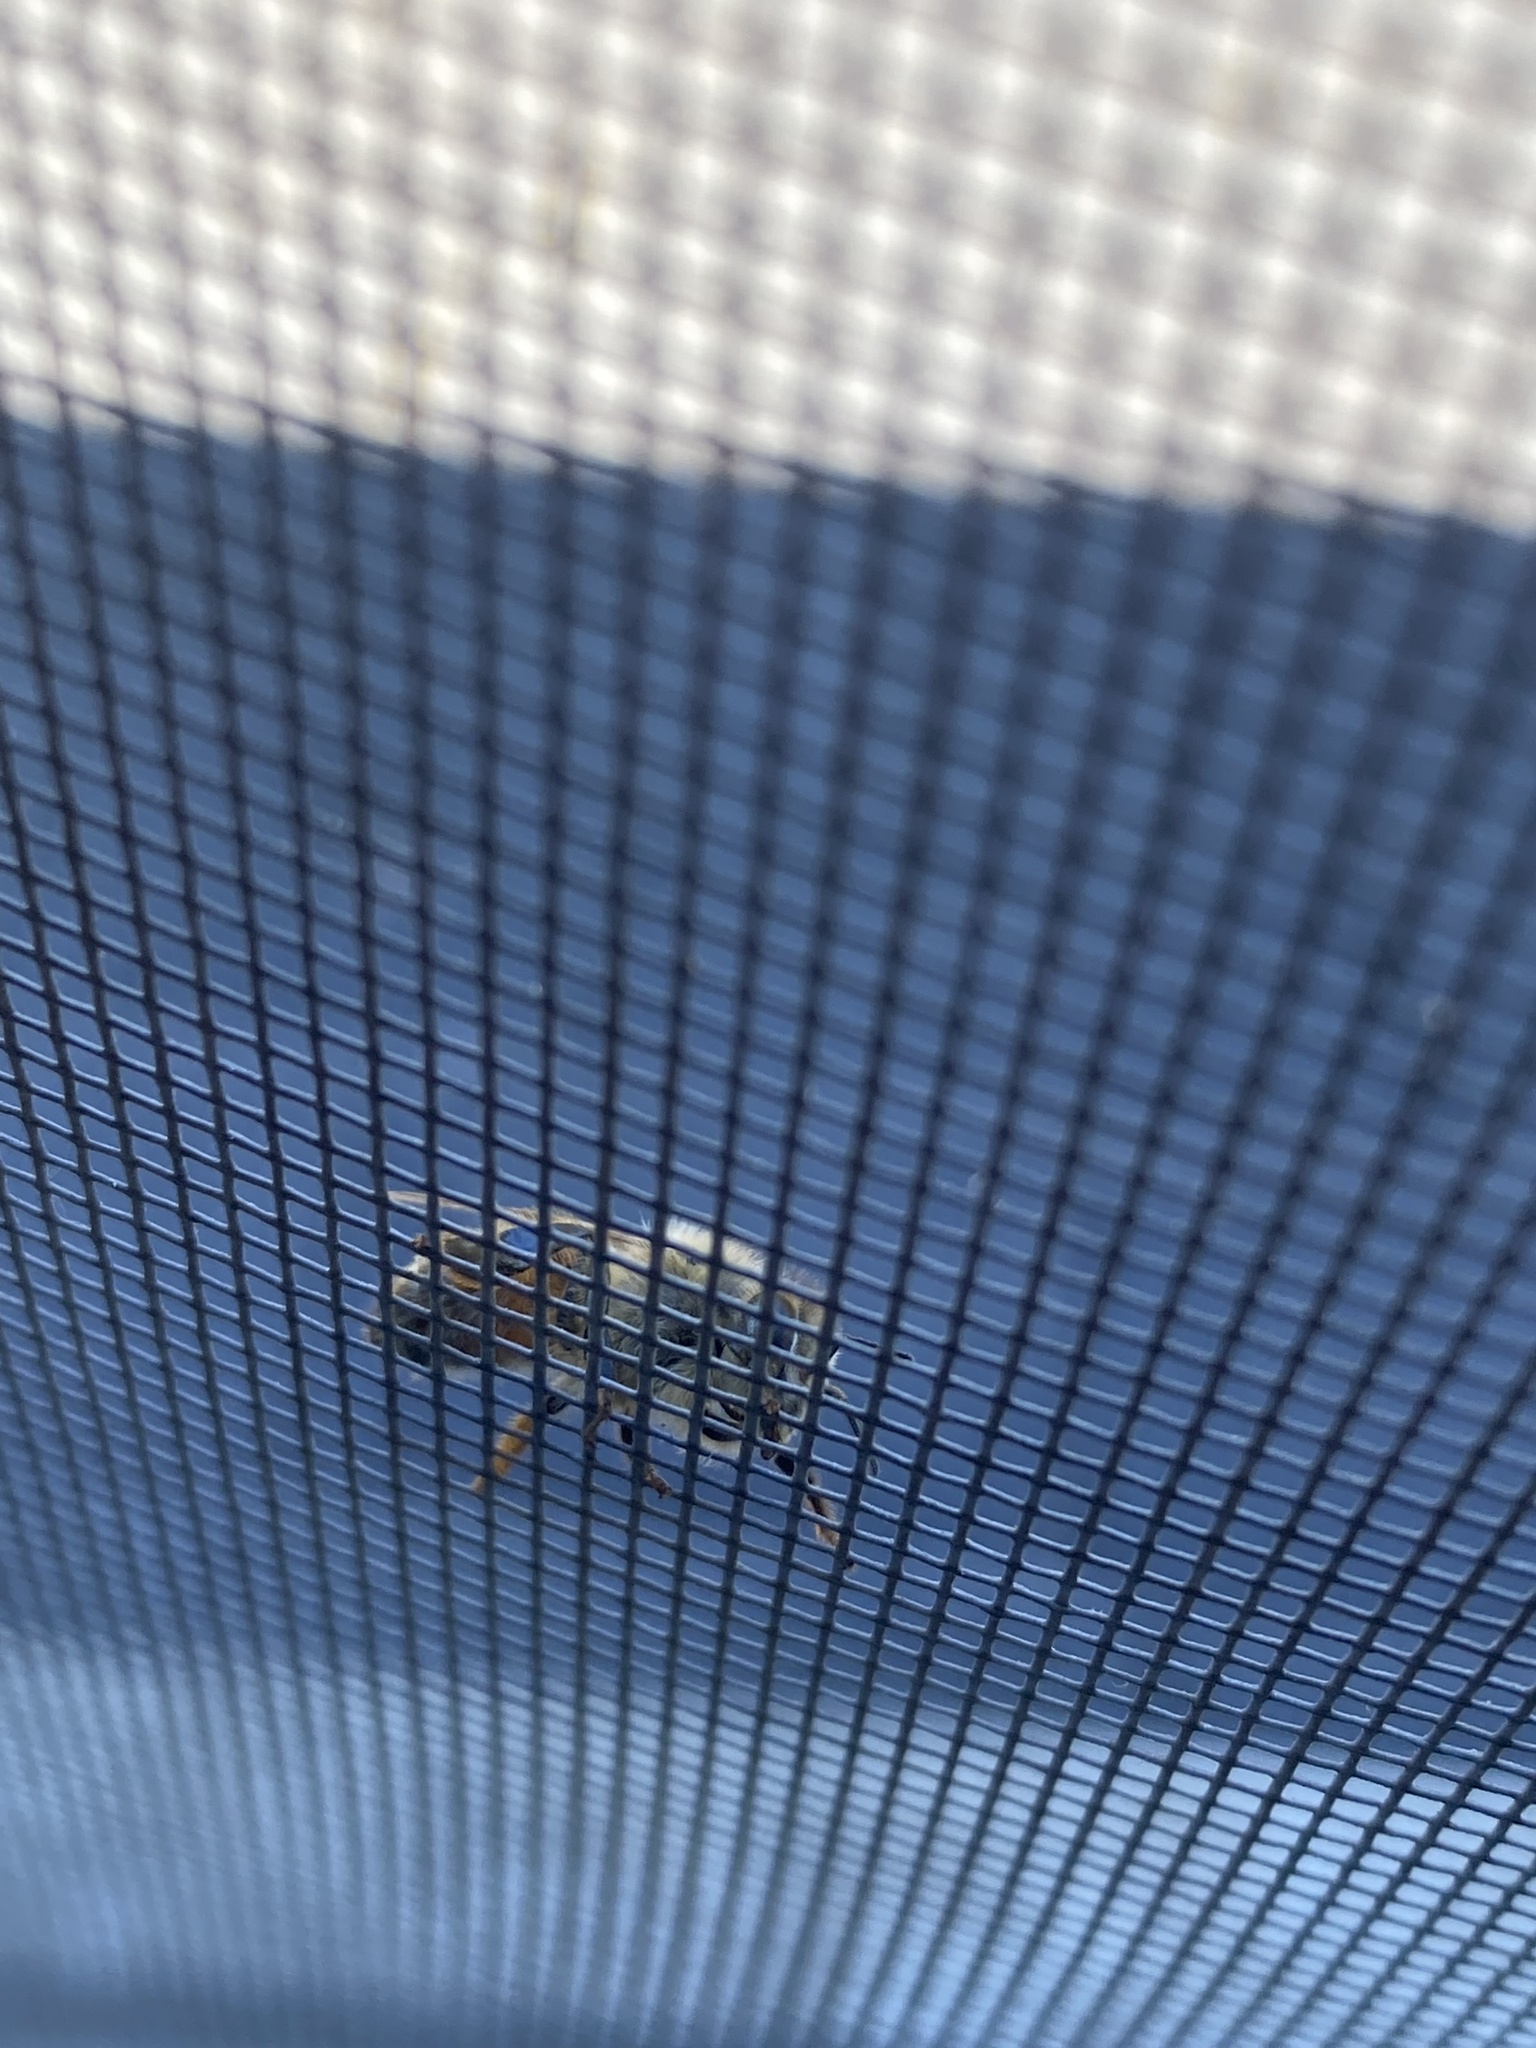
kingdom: Animalia
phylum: Arthropoda
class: Insecta
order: Hymenoptera
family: Apidae
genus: Apis
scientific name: Apis mellifera
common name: Honey bee
